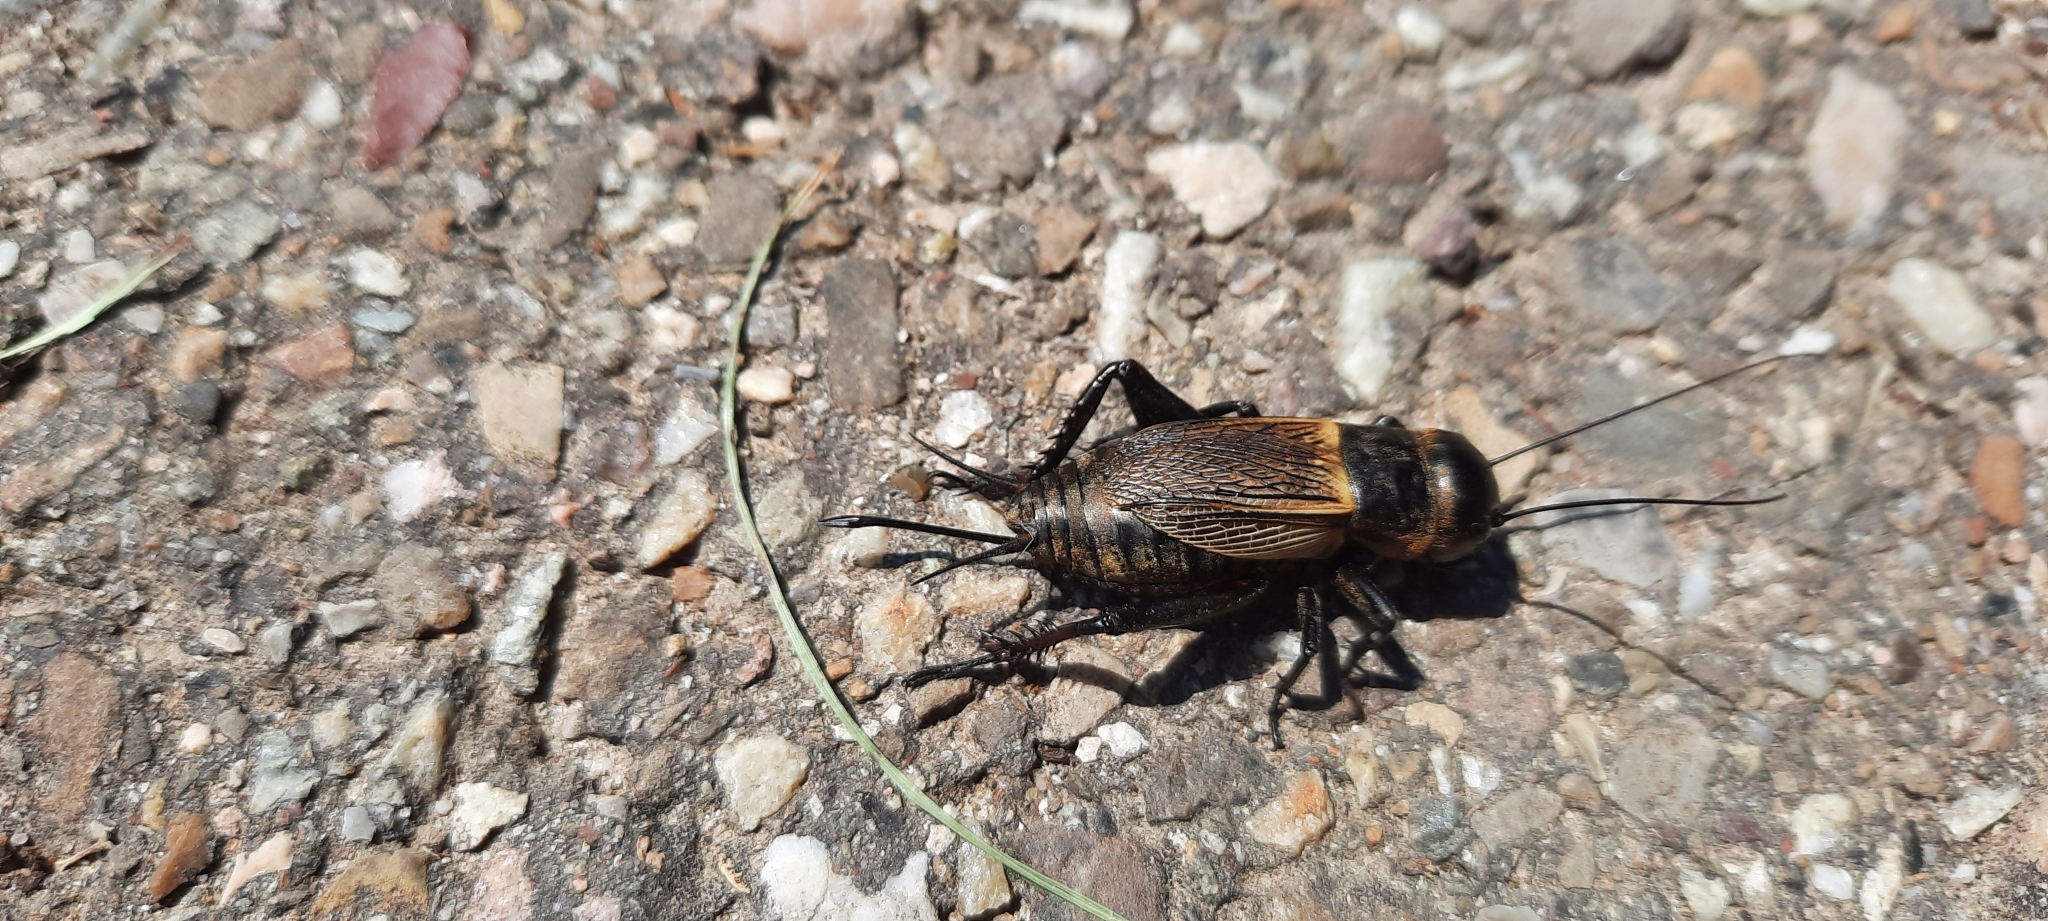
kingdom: Animalia
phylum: Arthropoda
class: Insecta
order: Orthoptera
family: Gryllidae
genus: Gryllus
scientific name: Gryllus campestris
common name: Field cricket
